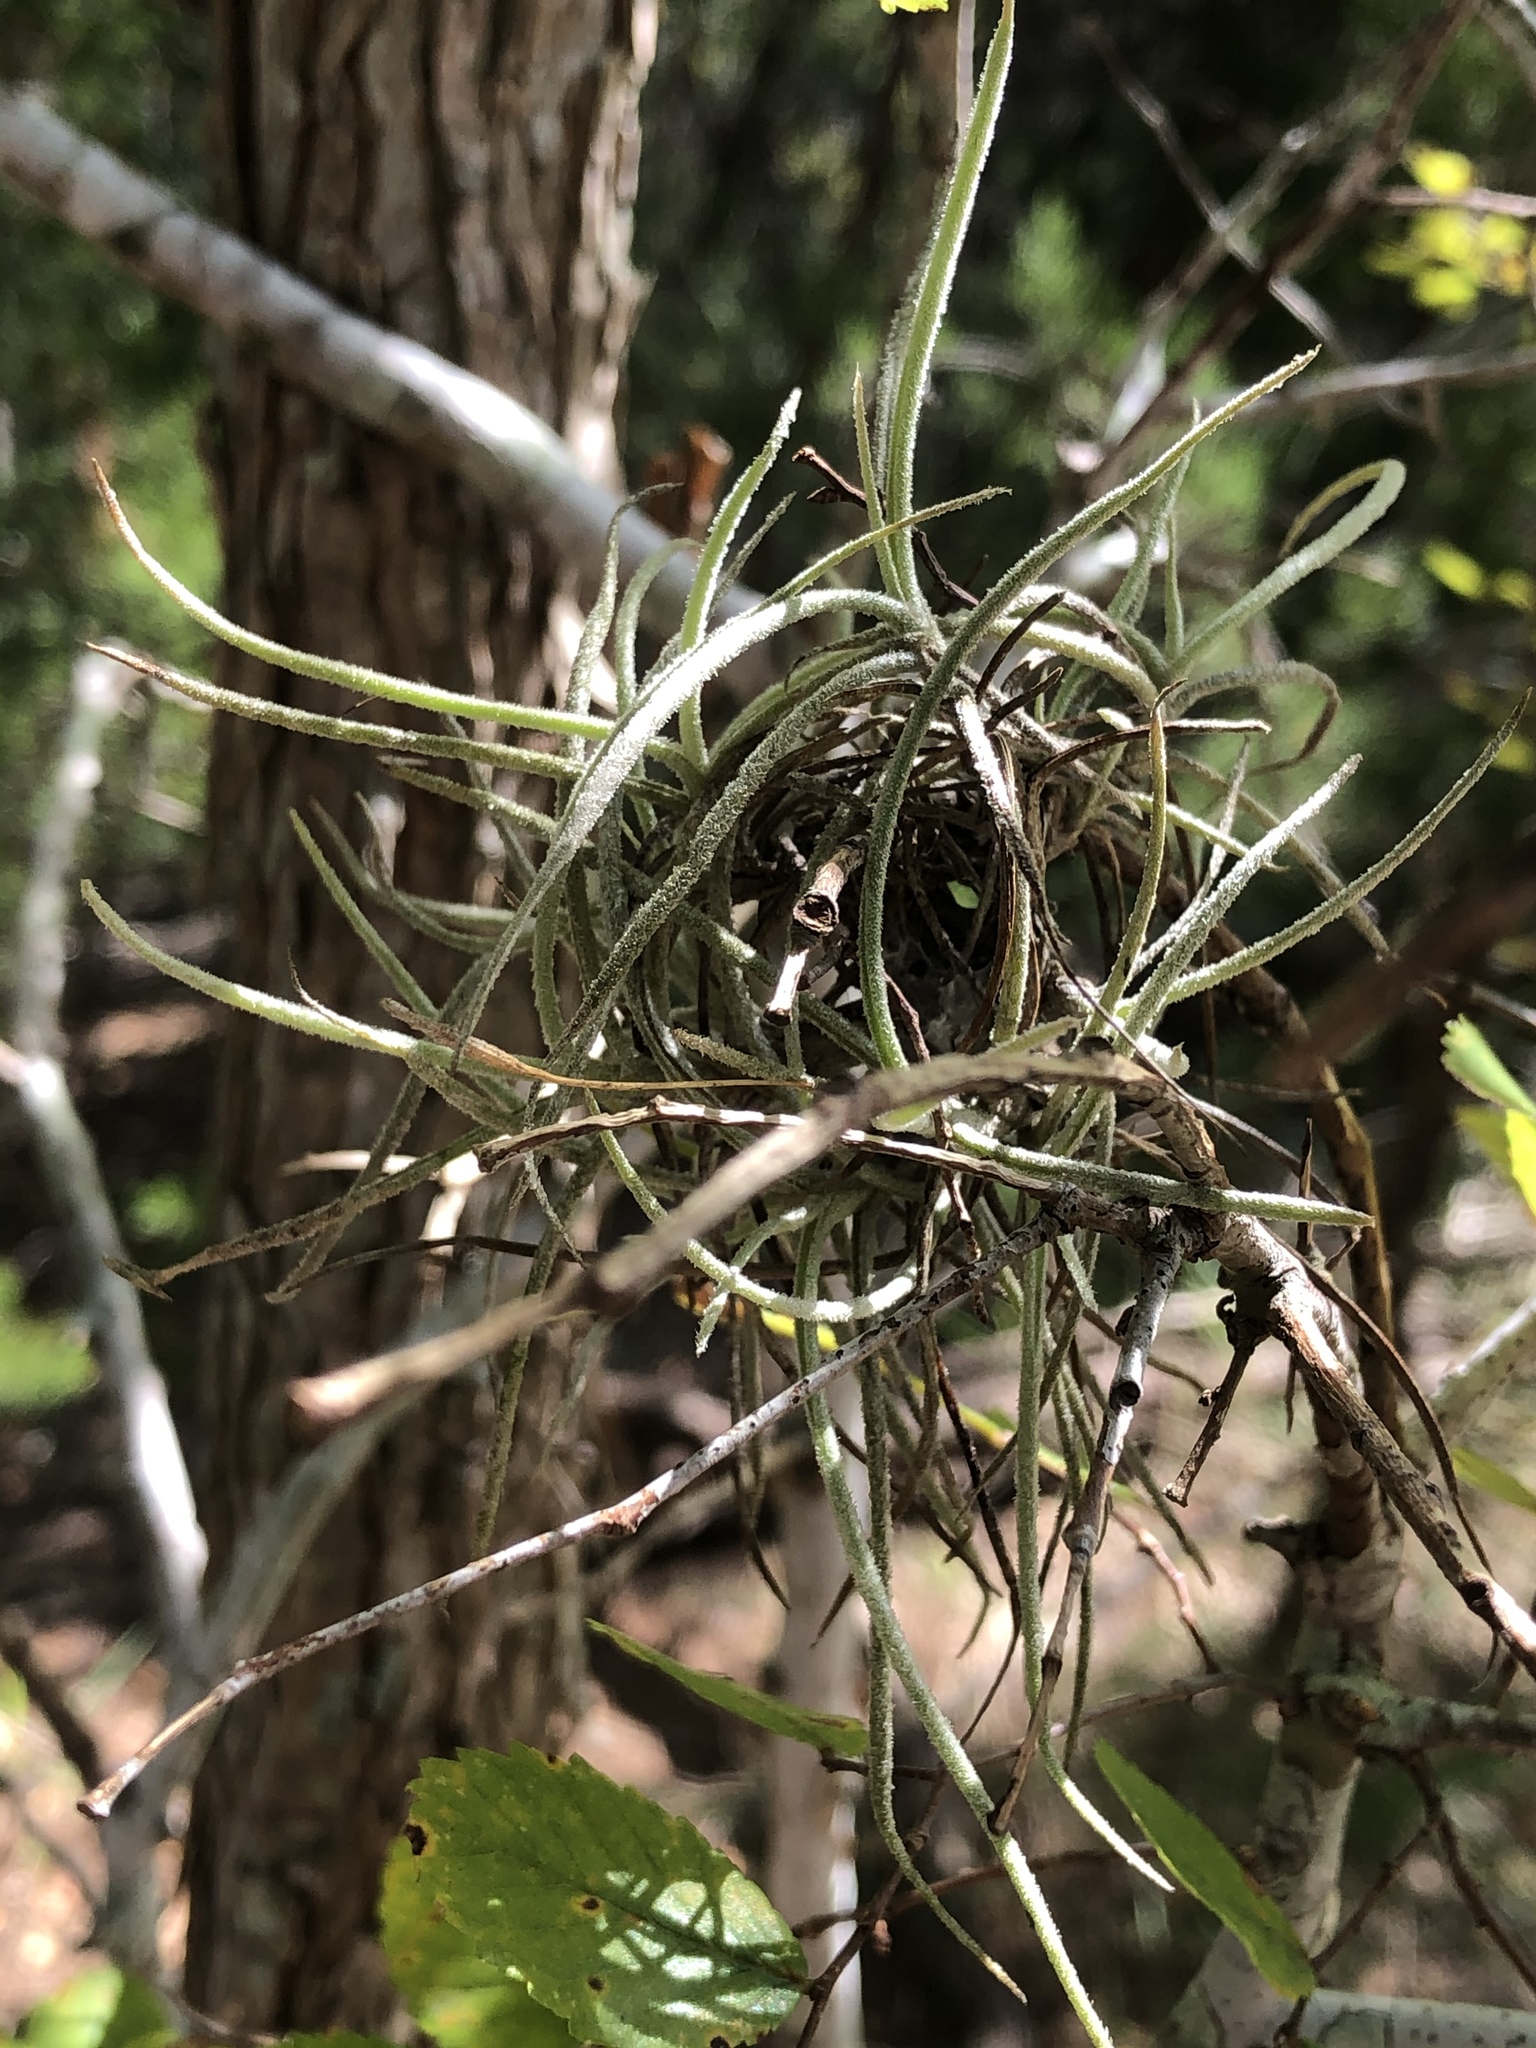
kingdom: Plantae
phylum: Tracheophyta
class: Liliopsida
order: Poales
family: Bromeliaceae
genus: Tillandsia
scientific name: Tillandsia recurvata
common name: Small ballmoss
